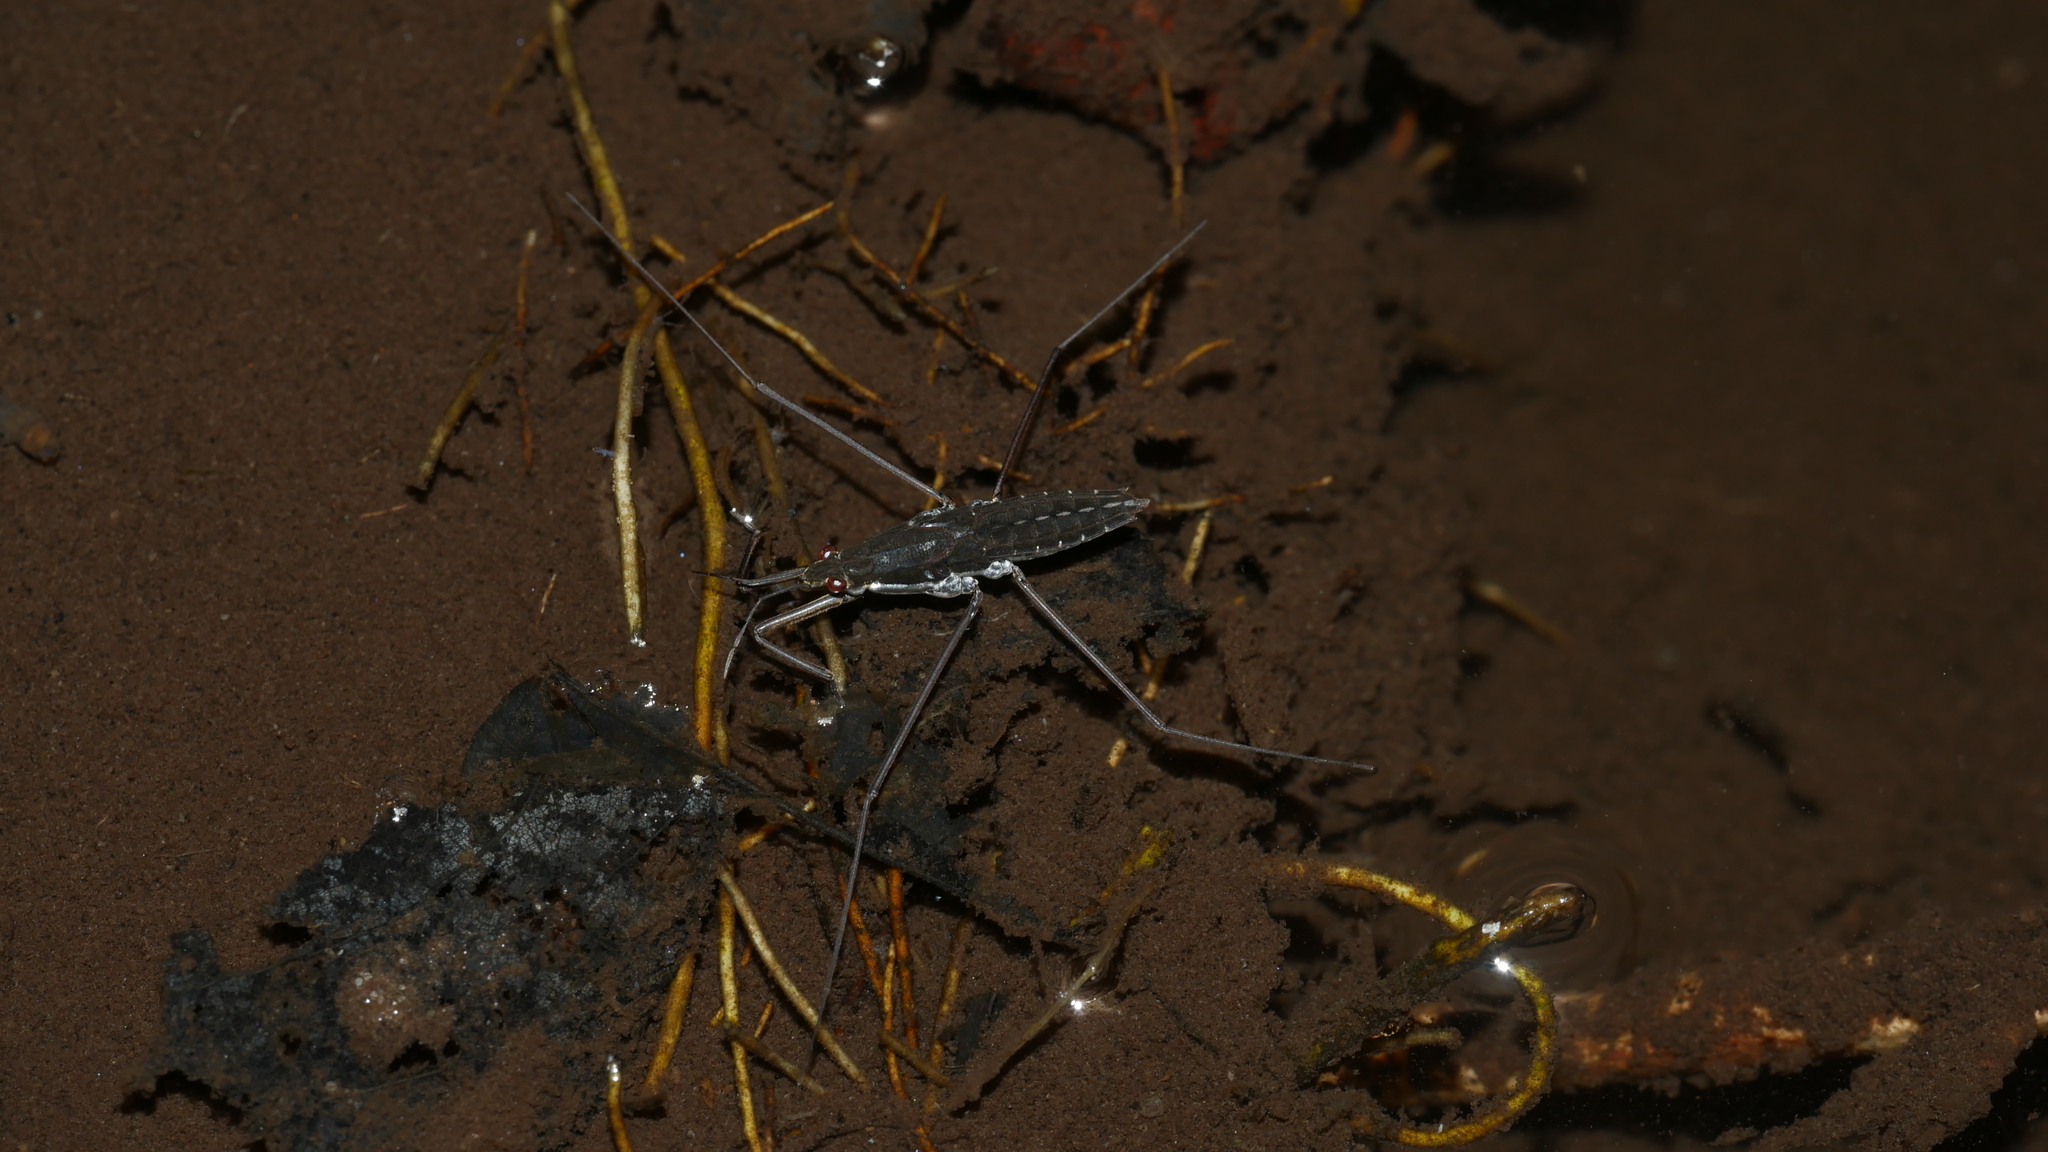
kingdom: Animalia
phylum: Arthropoda
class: Insecta
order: Hemiptera
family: Gerridae
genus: Aquarius
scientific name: Aquarius
